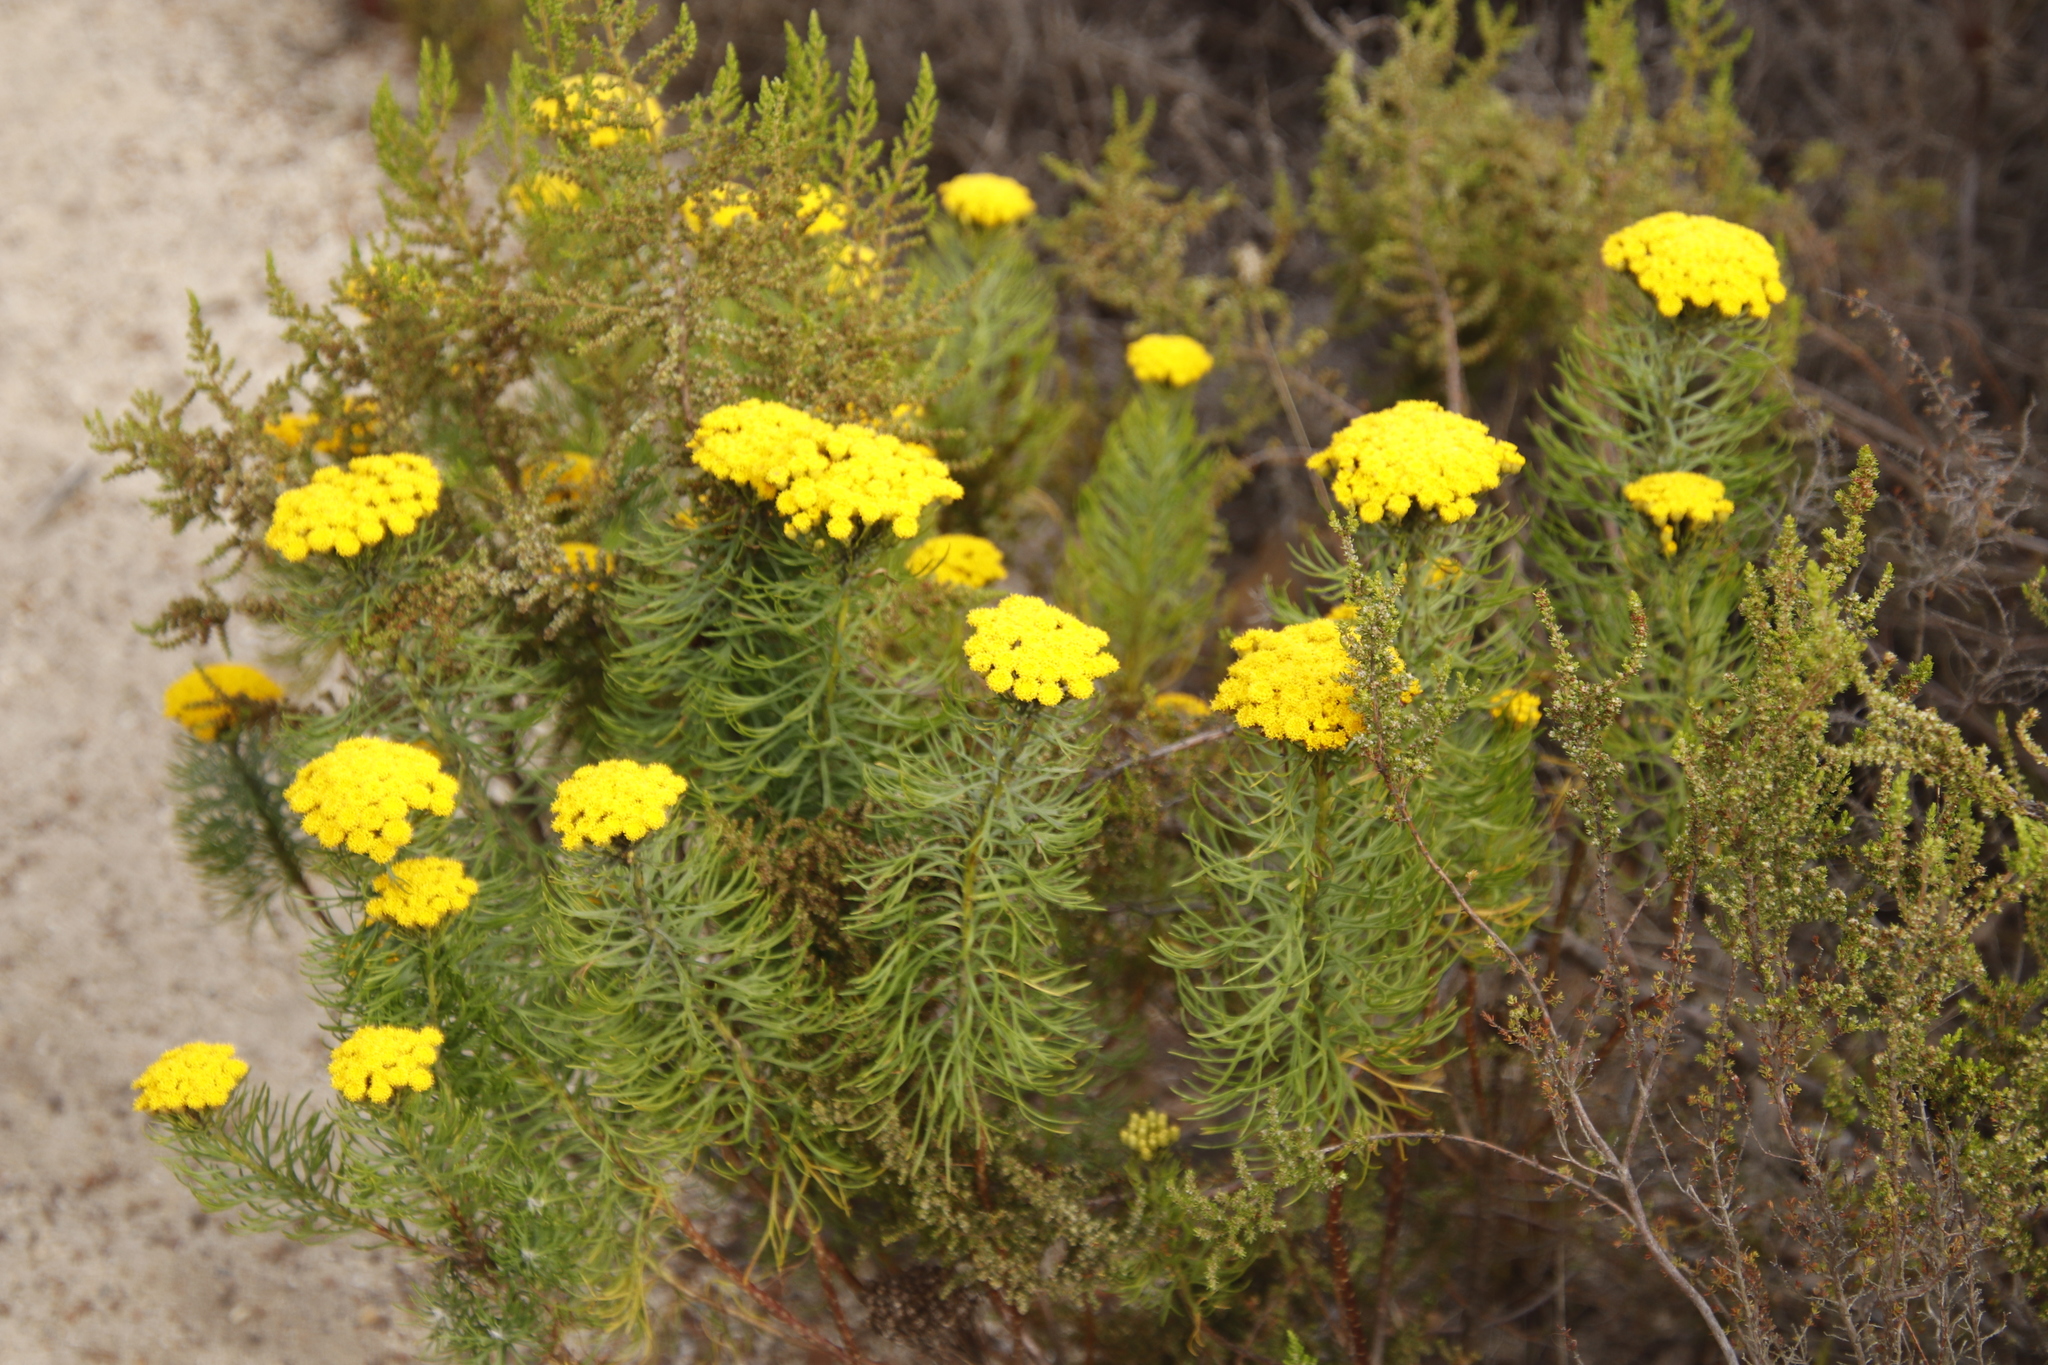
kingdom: Plantae
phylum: Tracheophyta
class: Magnoliopsida
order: Asterales
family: Asteraceae
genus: Athanasia
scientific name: Athanasia crithmifolia
